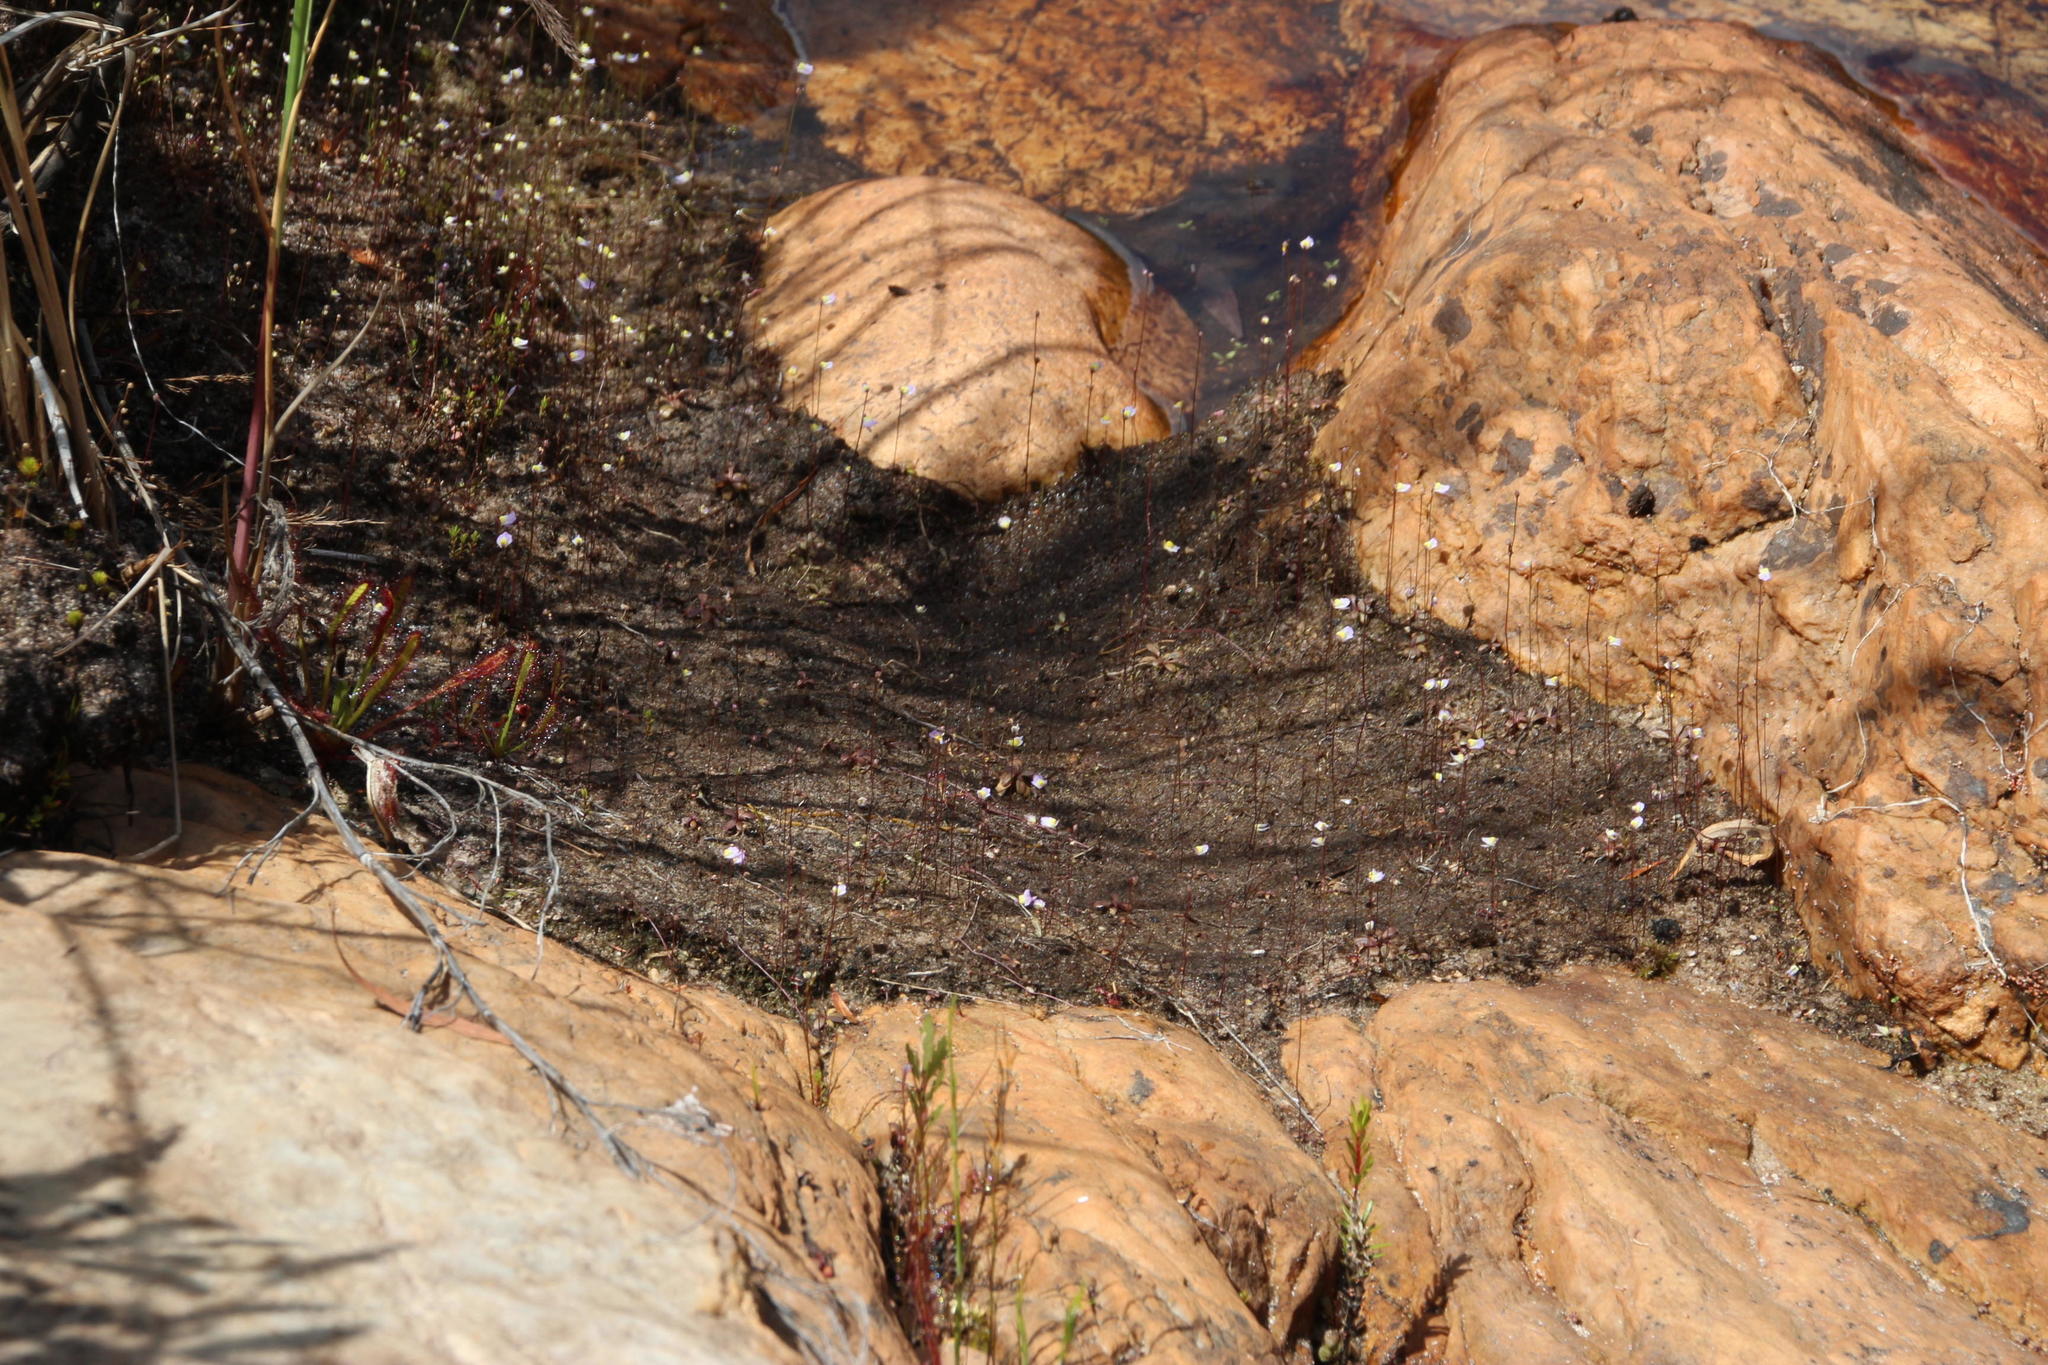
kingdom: Plantae
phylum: Tracheophyta
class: Magnoliopsida
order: Lamiales
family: Lentibulariaceae
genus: Utricularia
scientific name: Utricularia bisquamata
